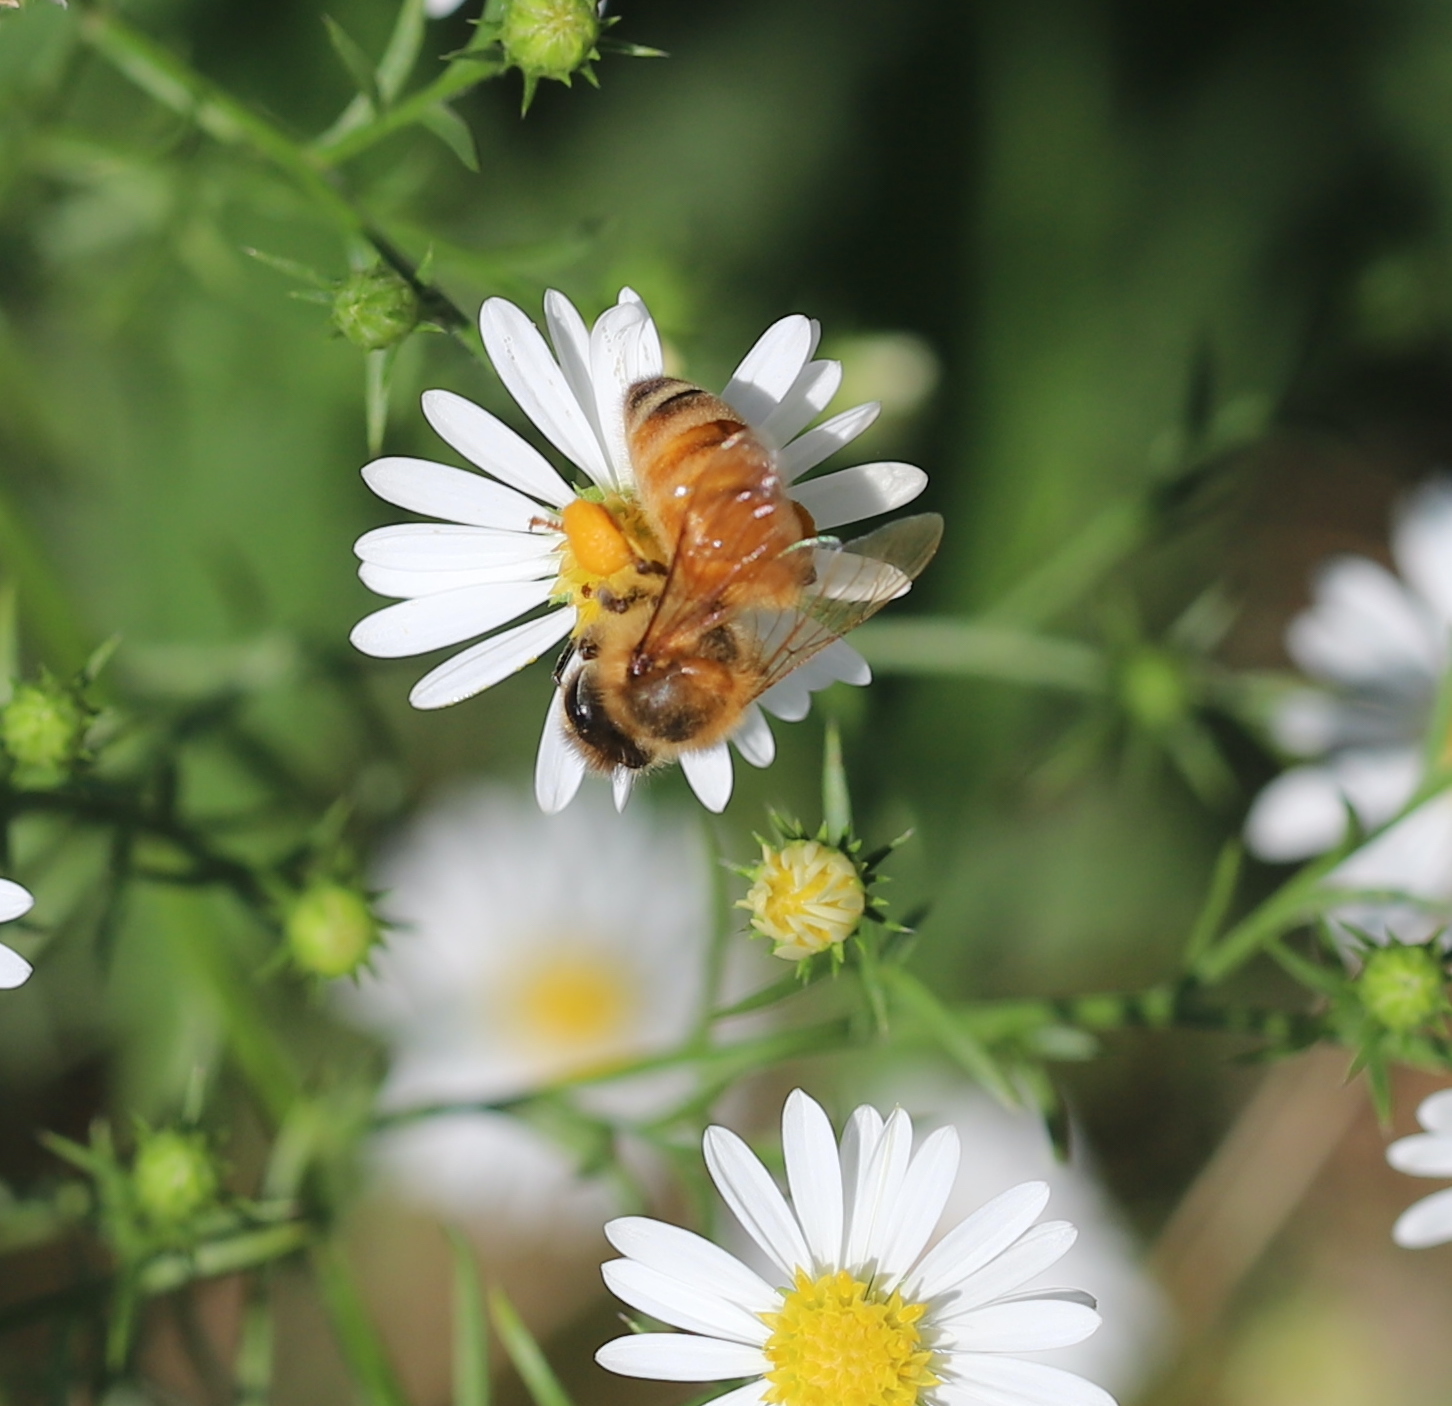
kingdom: Animalia
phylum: Arthropoda
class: Insecta
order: Hymenoptera
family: Apidae
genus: Apis
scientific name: Apis mellifera
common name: Honey bee
